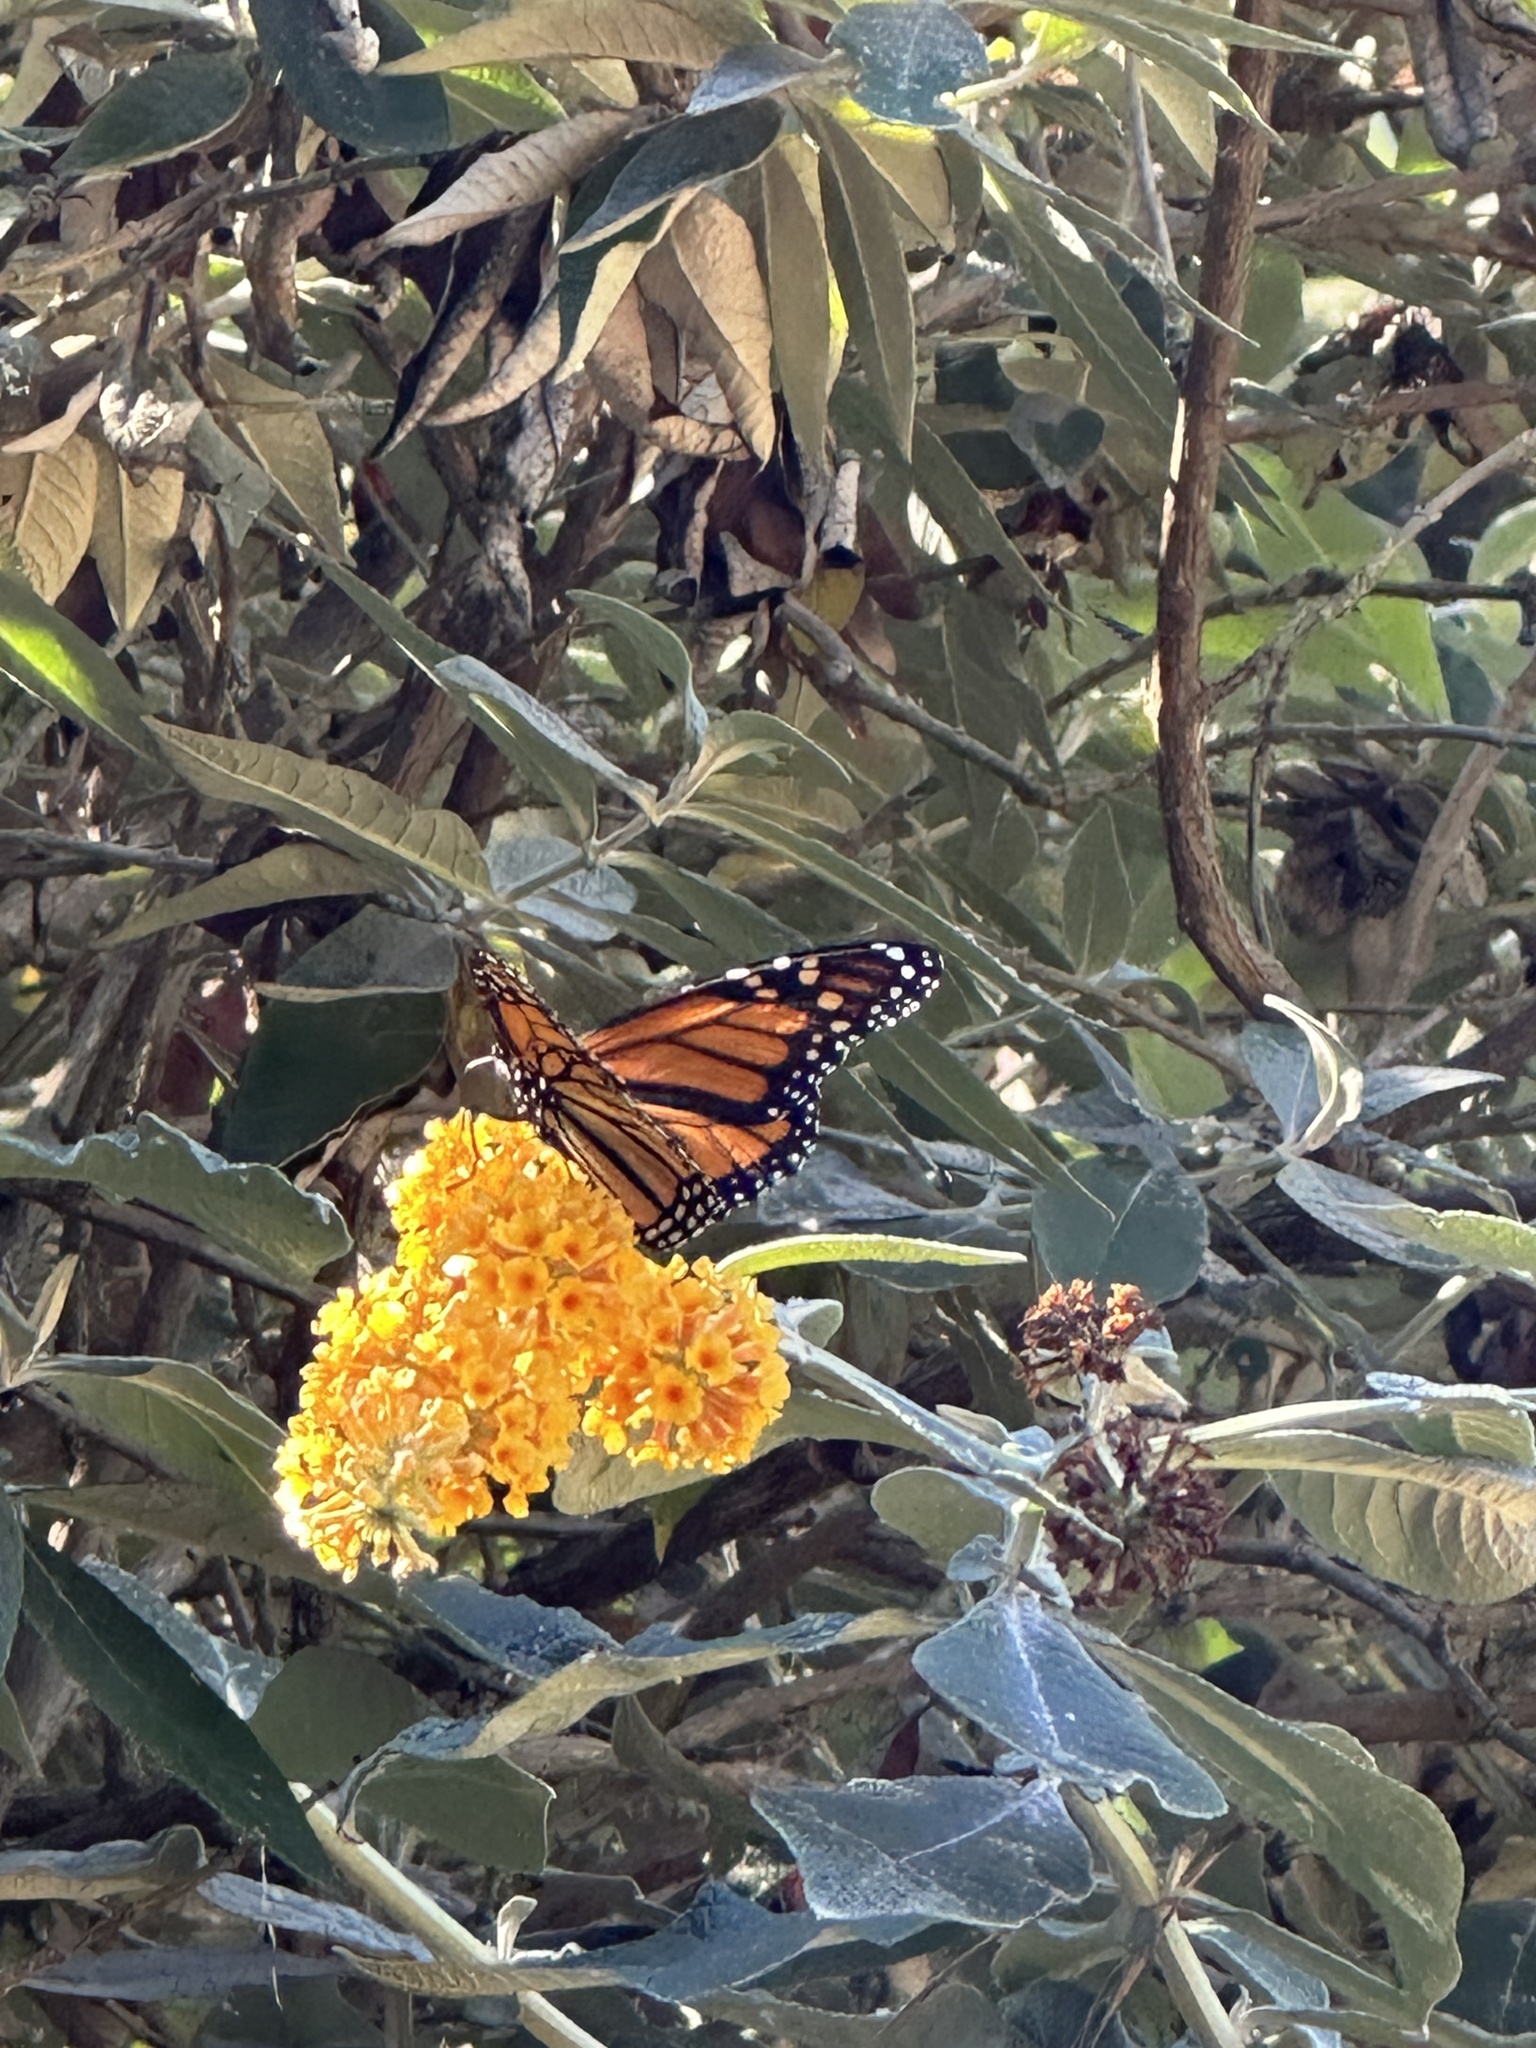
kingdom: Animalia
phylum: Arthropoda
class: Insecta
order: Lepidoptera
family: Nymphalidae
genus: Danaus
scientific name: Danaus plexippus
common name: Monarch
